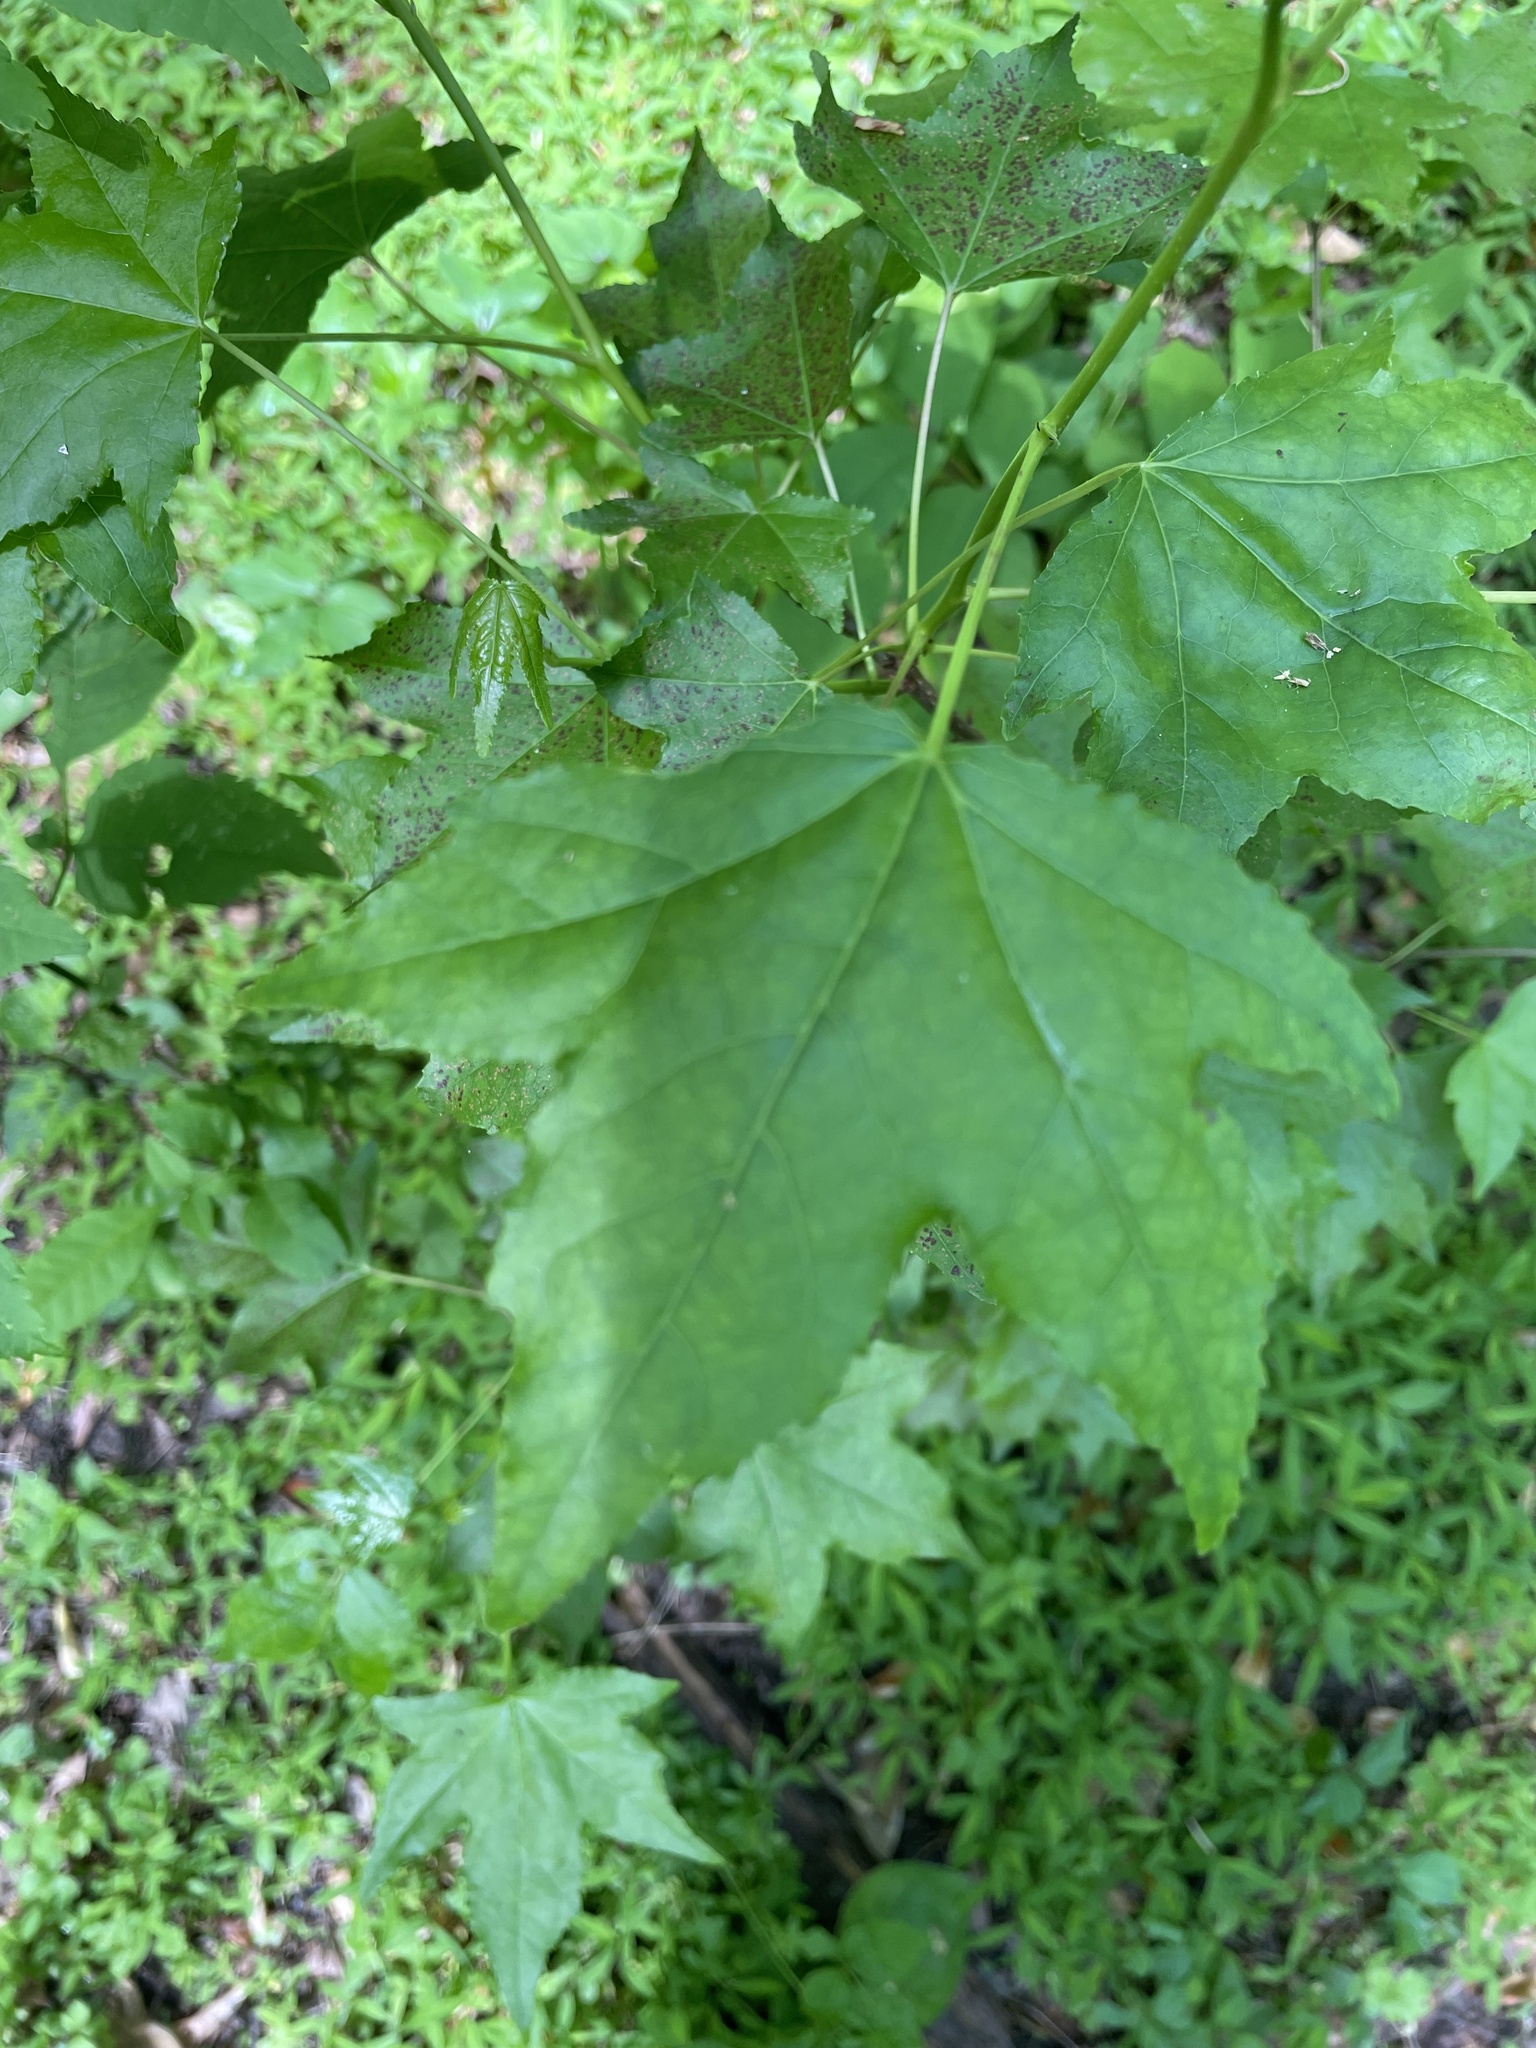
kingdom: Plantae
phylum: Tracheophyta
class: Magnoliopsida
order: Saxifragales
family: Altingiaceae
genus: Liquidambar
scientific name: Liquidambar styraciflua
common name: Sweet gum
